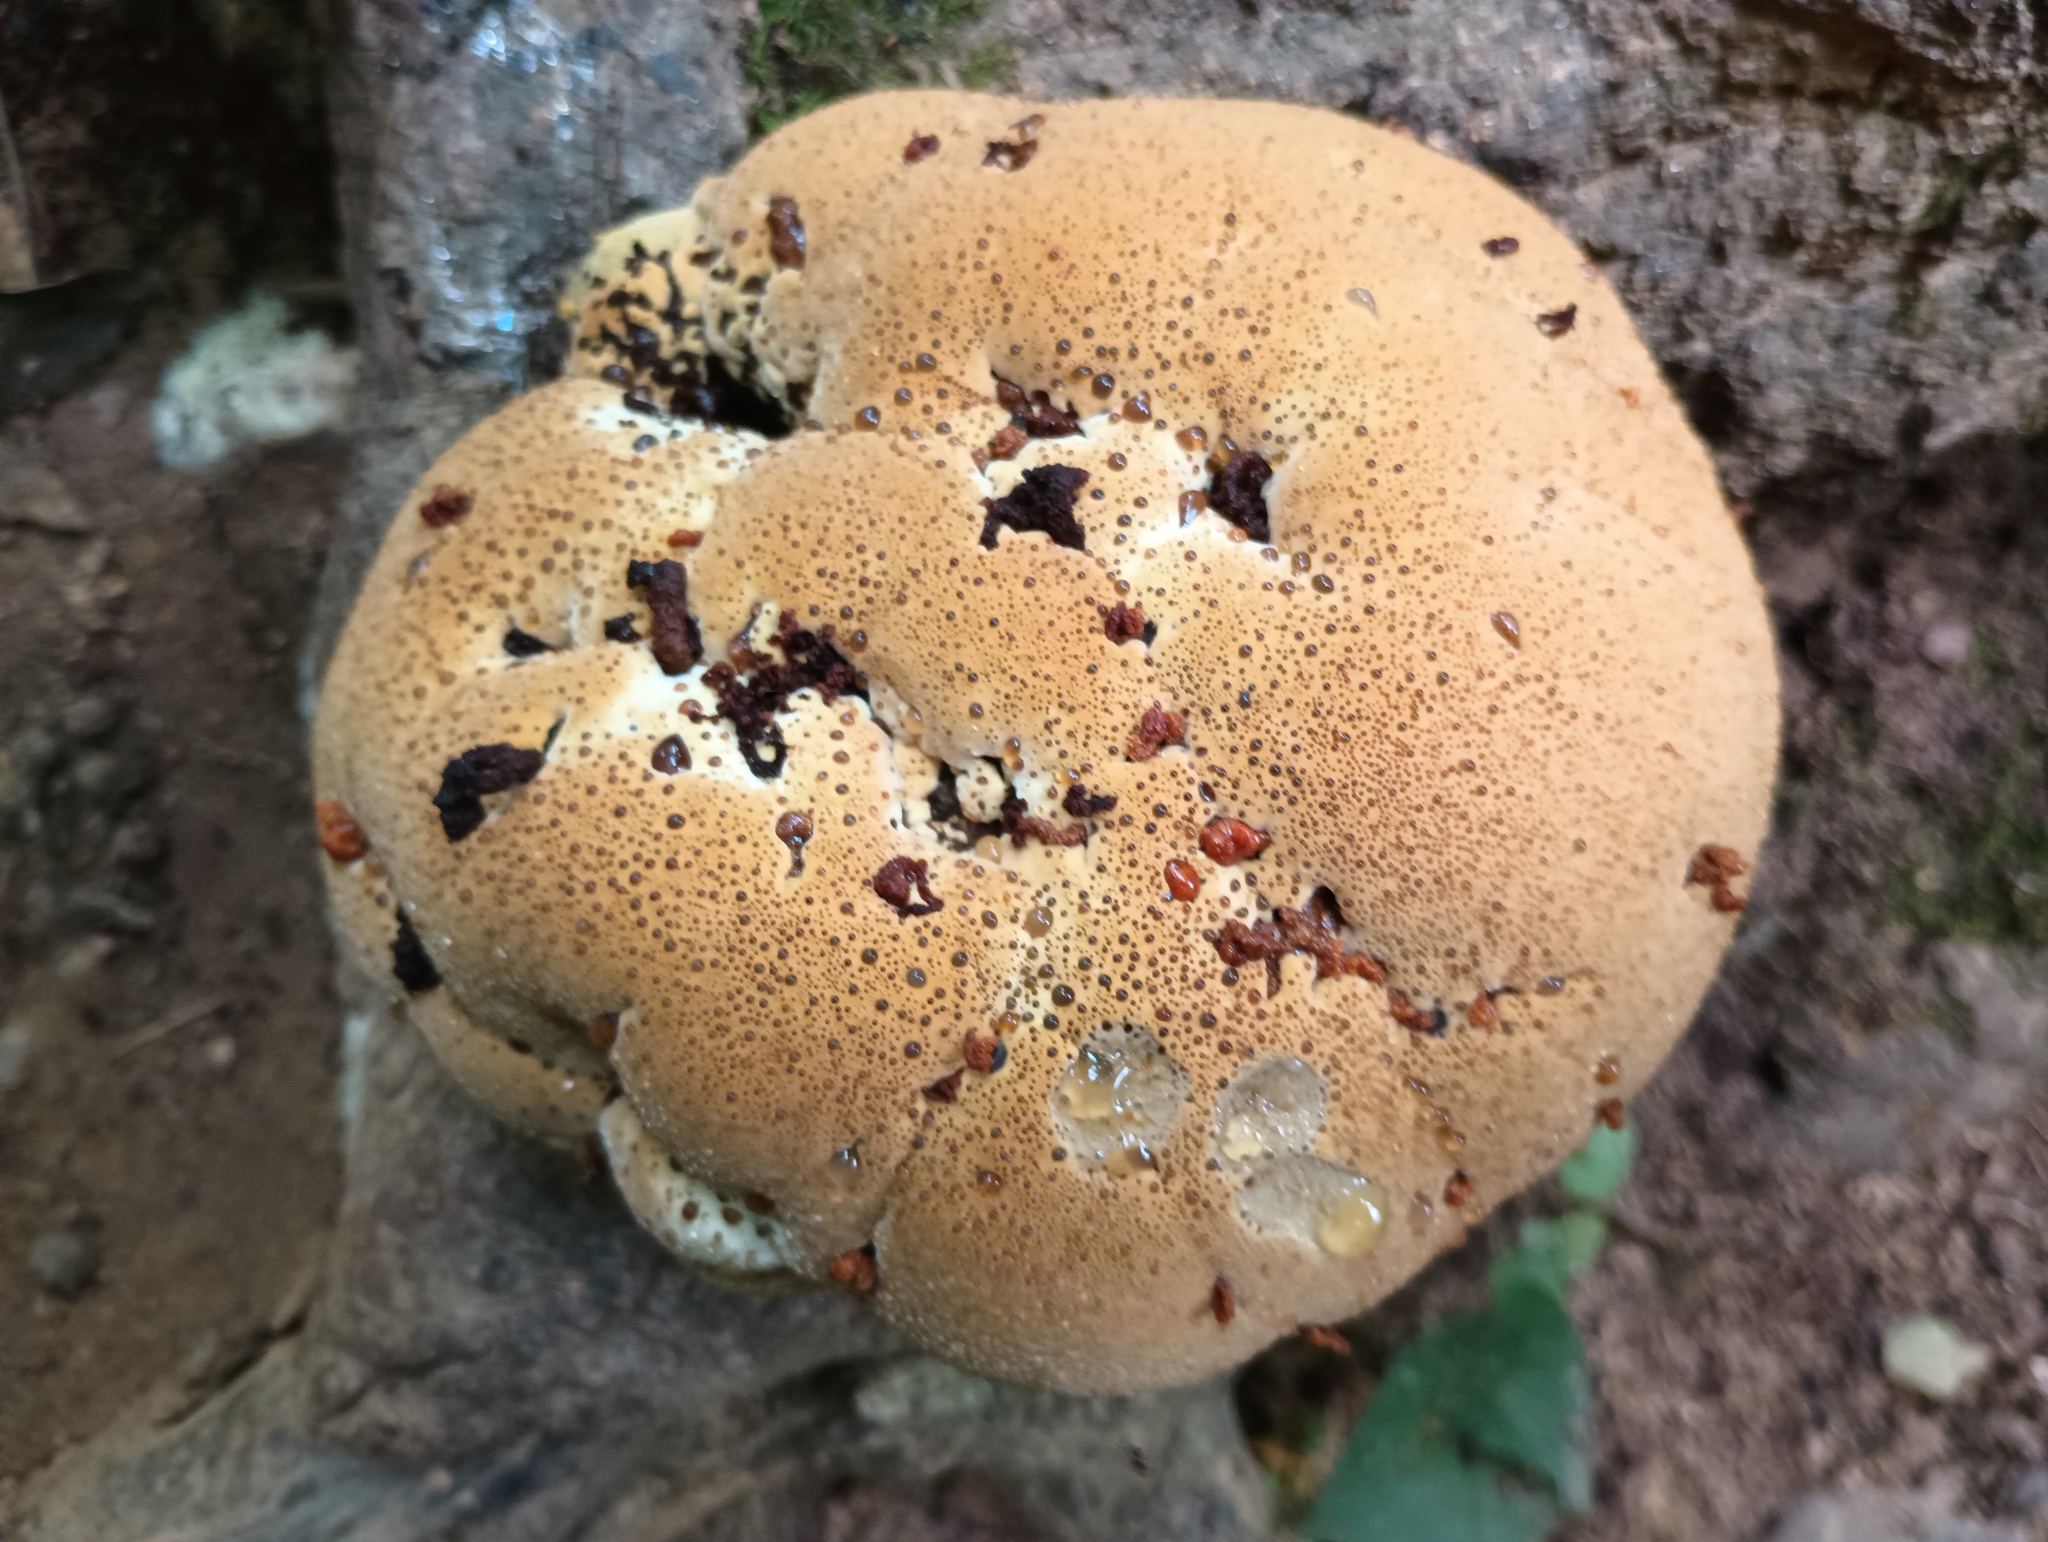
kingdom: Fungi
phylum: Basidiomycota
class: Agaricomycetes
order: Hymenochaetales
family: Hymenochaetaceae
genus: Pseudoinonotus
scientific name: Pseudoinonotus dryadeus
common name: Oak bracket
